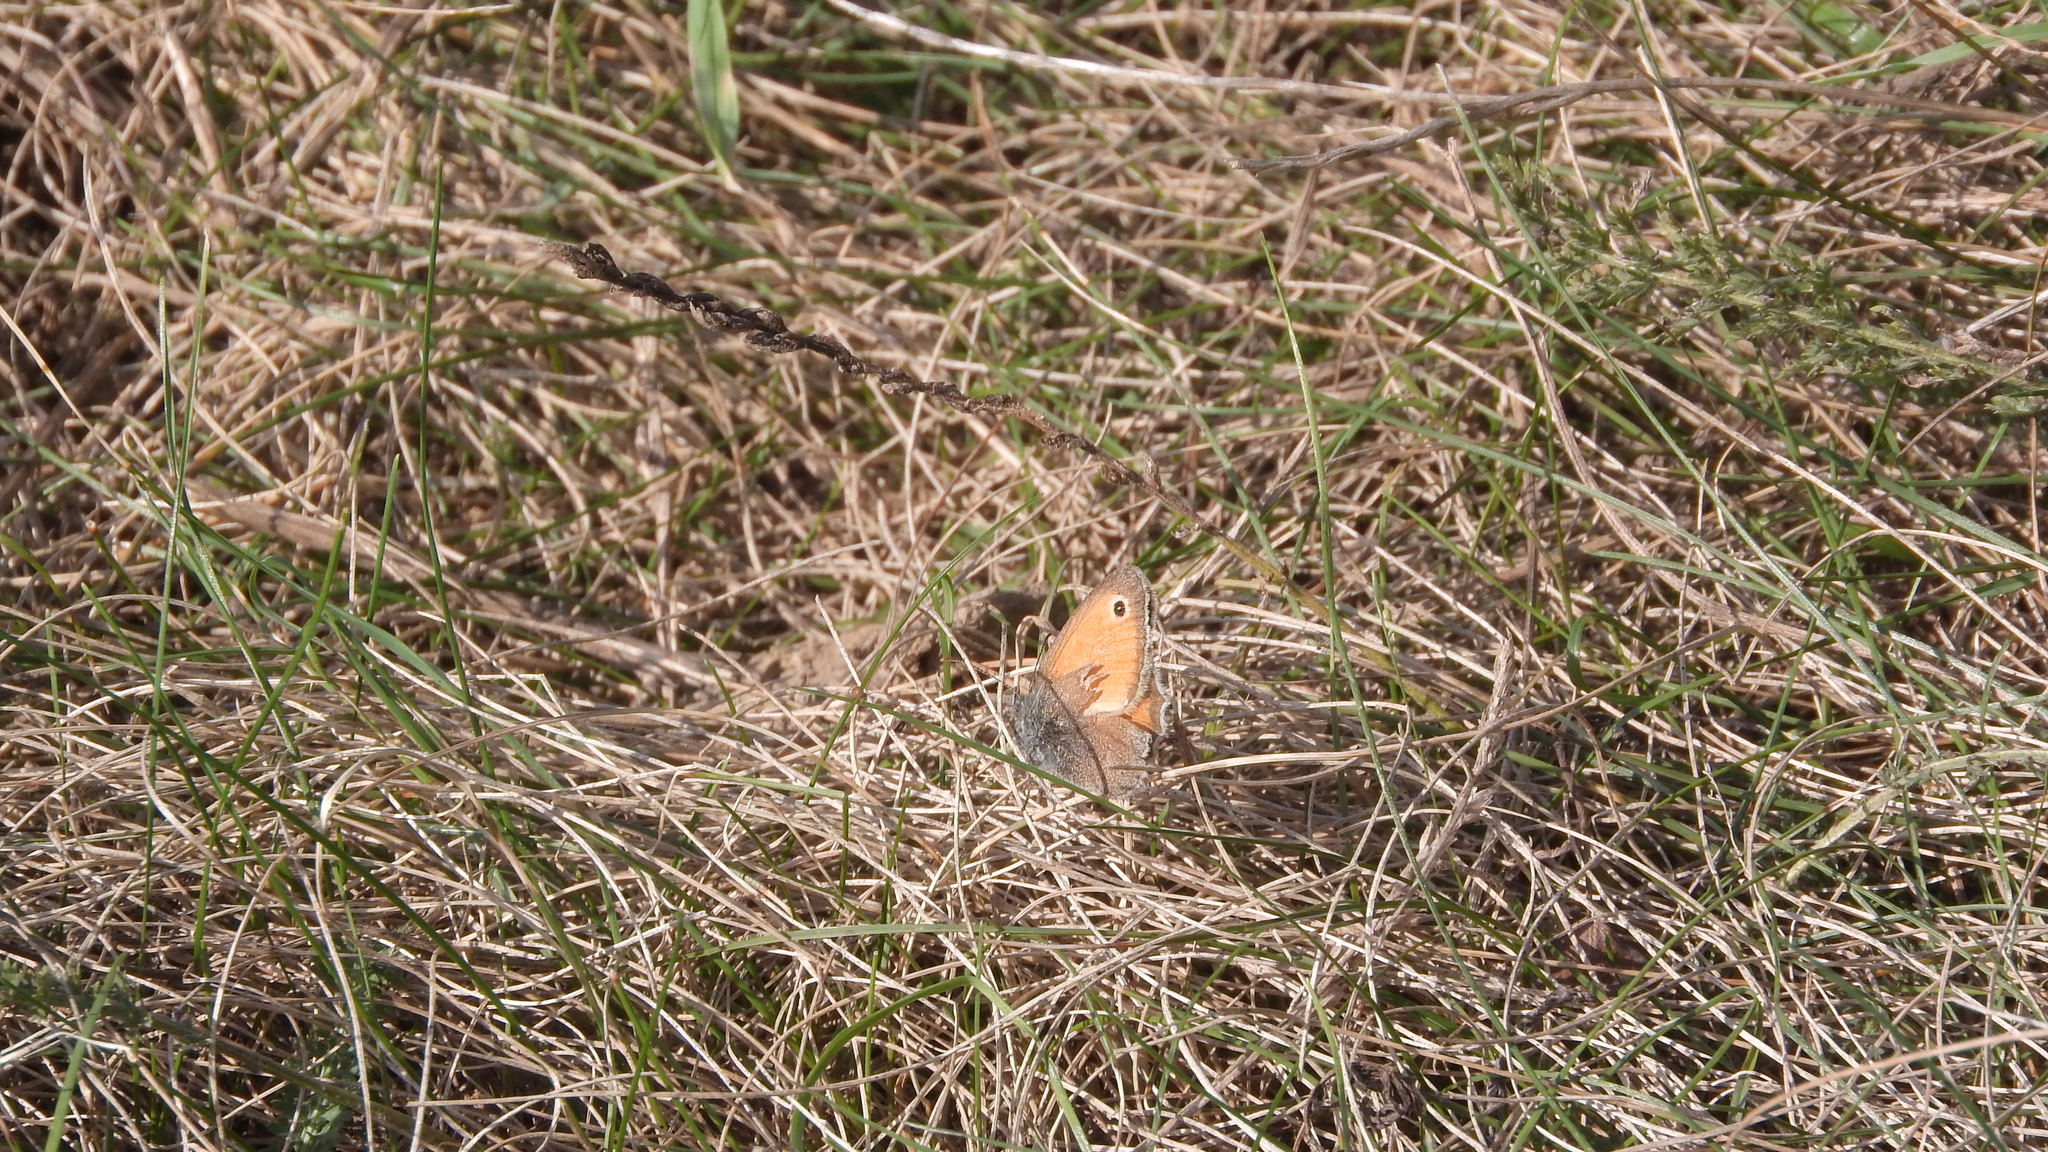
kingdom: Animalia
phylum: Arthropoda
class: Insecta
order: Lepidoptera
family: Nymphalidae
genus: Coenonympha
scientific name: Coenonympha pamphilus
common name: Small heath
